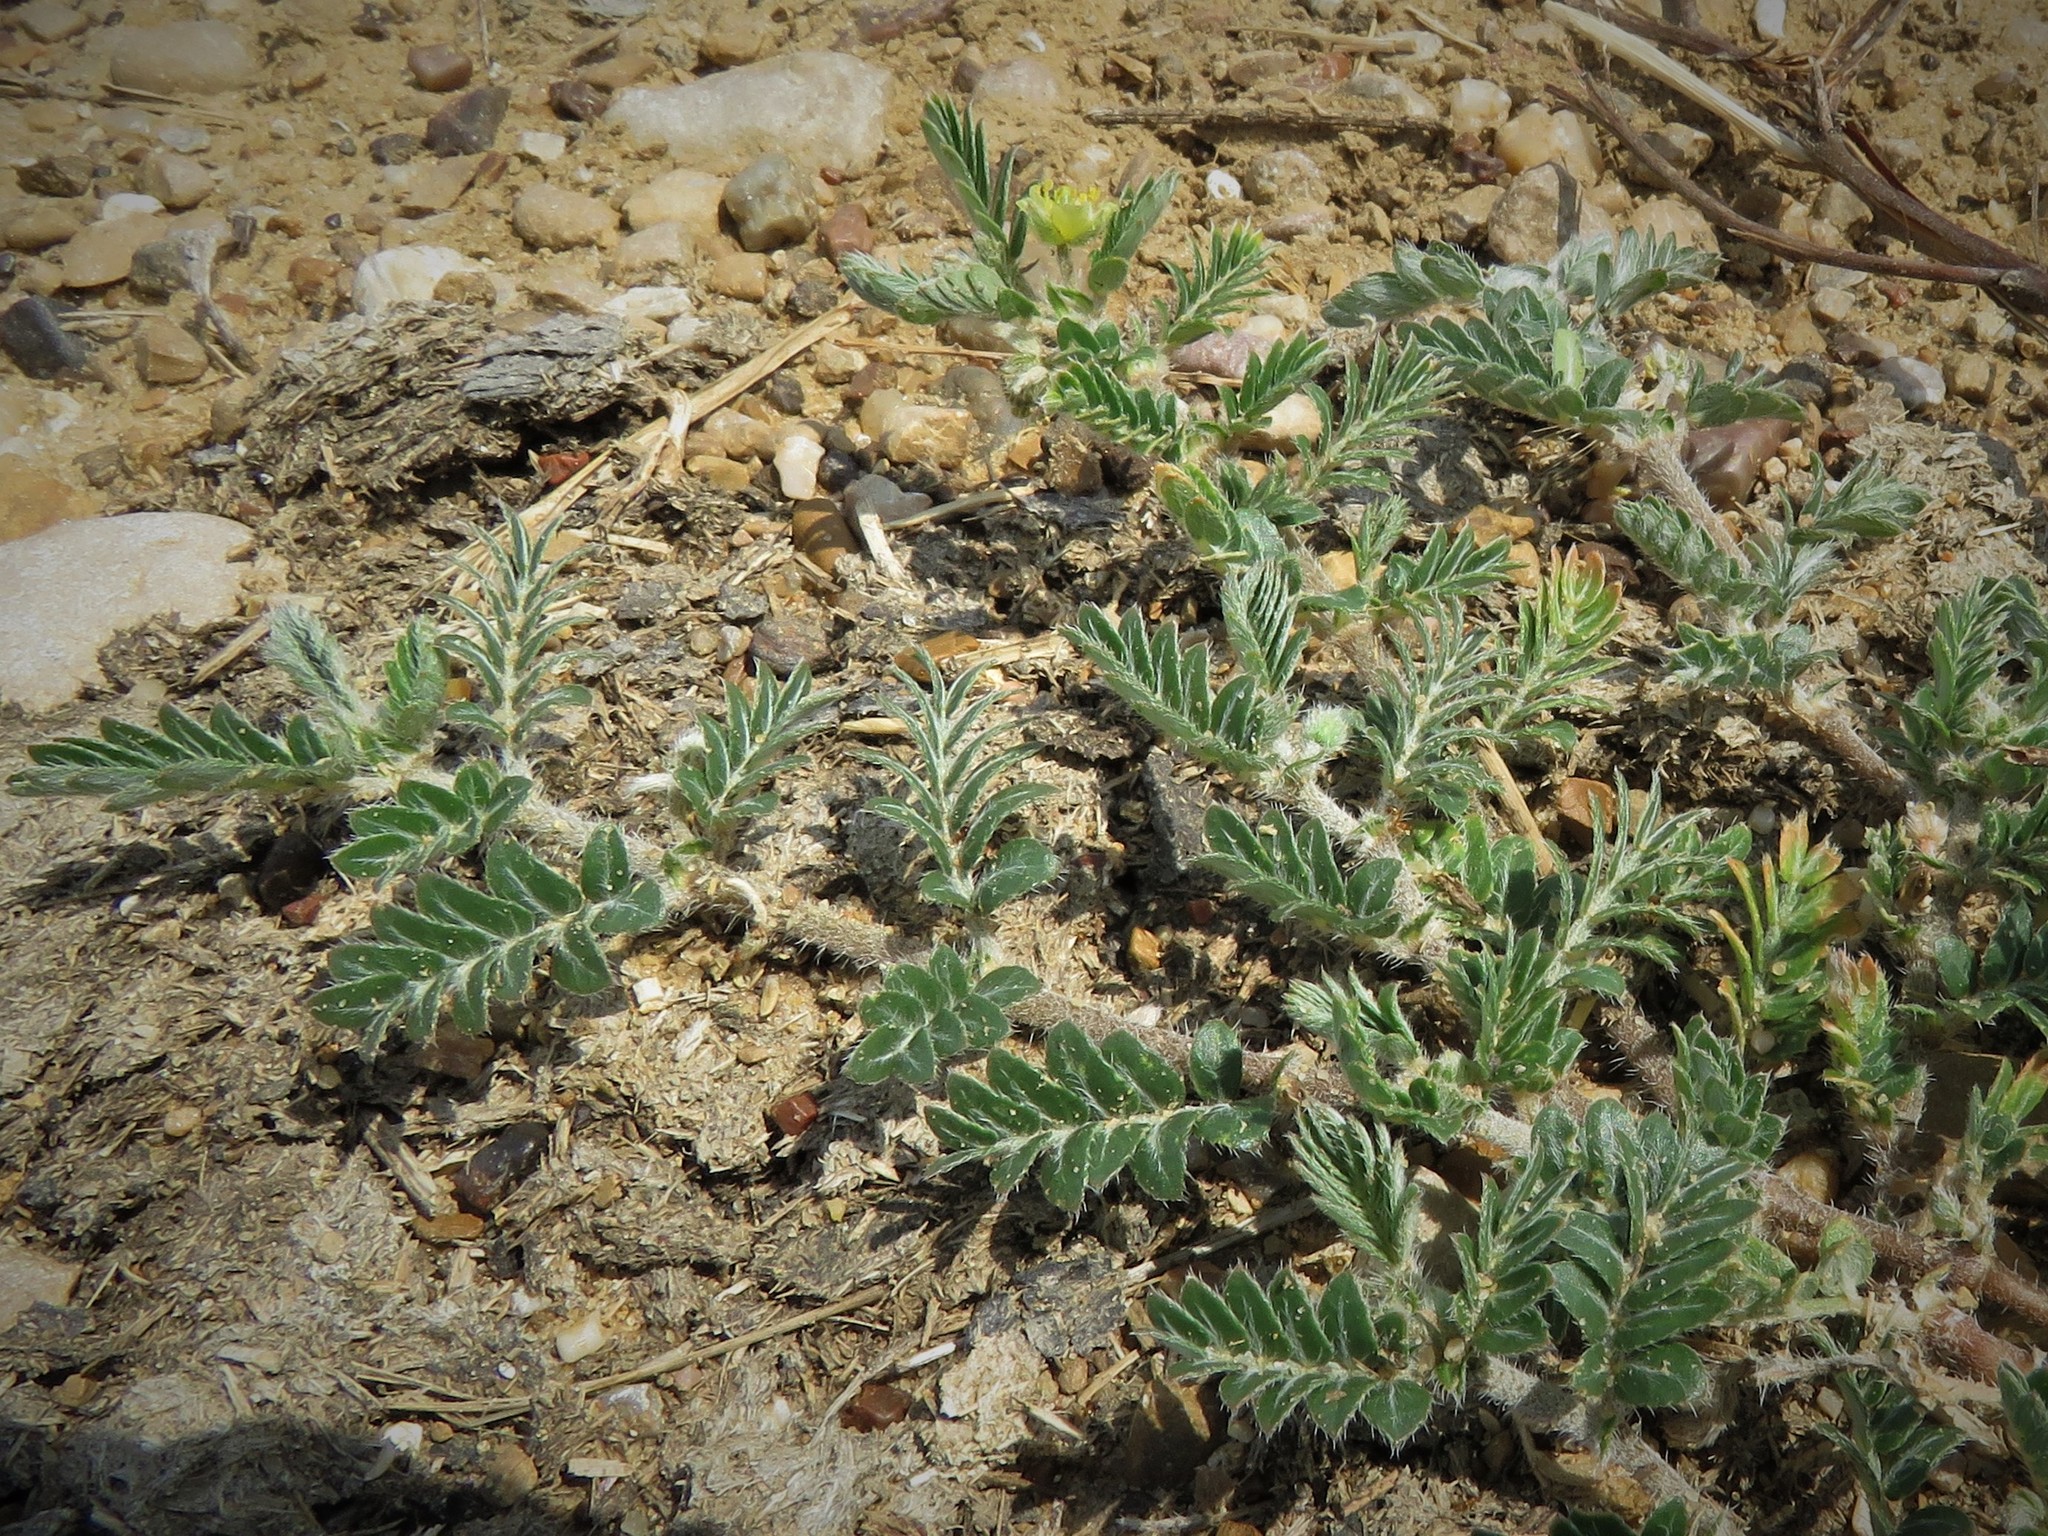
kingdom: Plantae
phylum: Tracheophyta
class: Magnoliopsida
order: Zygophyllales
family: Zygophyllaceae
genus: Tribulus
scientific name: Tribulus terrestris
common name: Puncturevine
